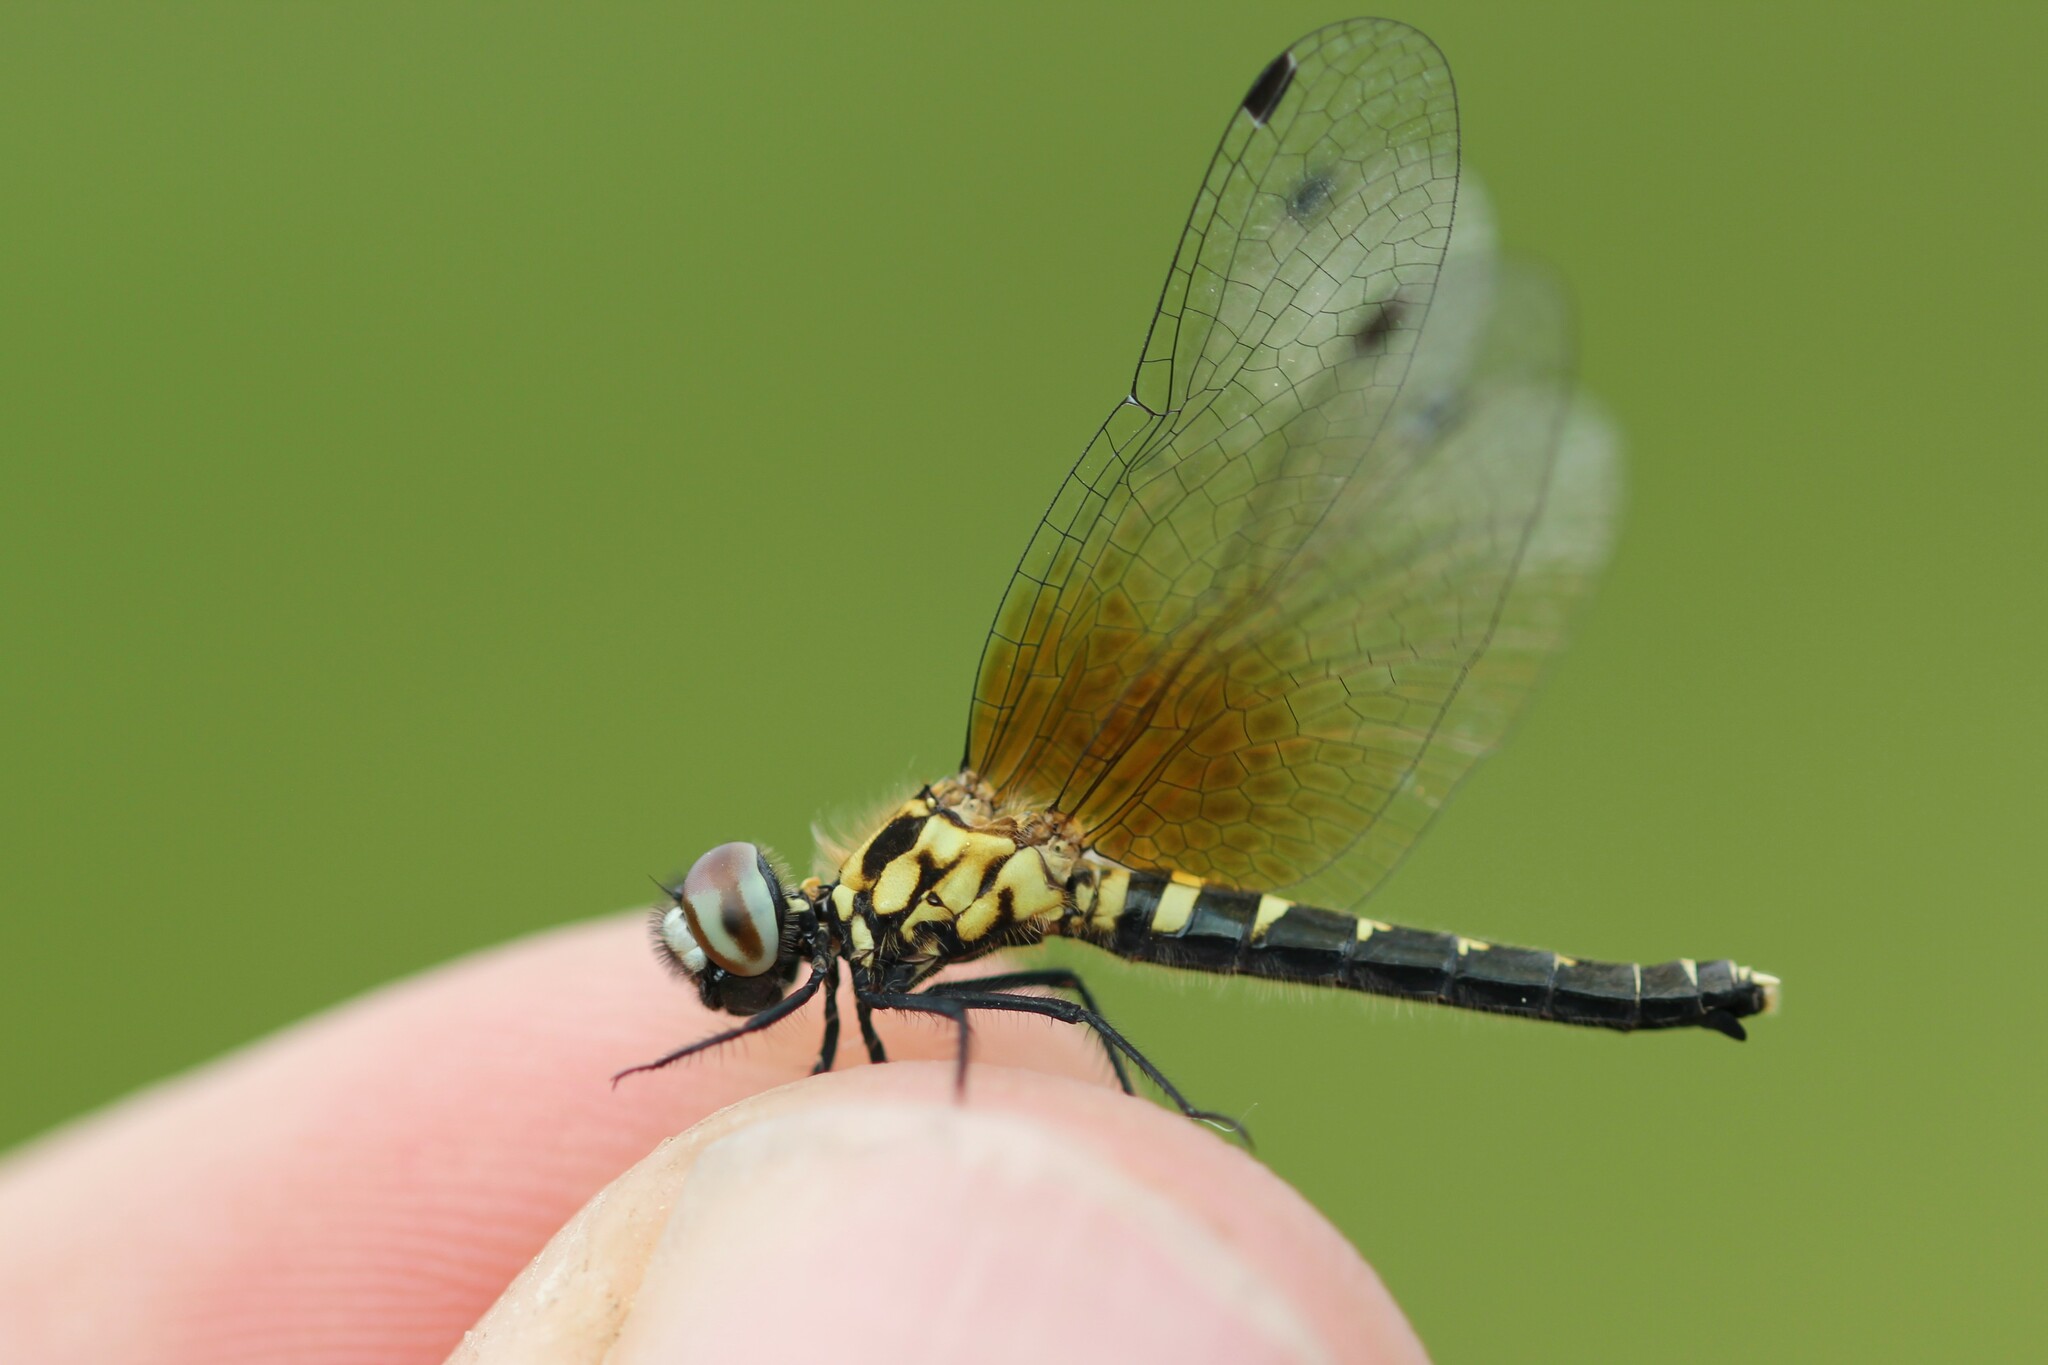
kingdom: Animalia
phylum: Arthropoda
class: Insecta
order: Odonata
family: Libellulidae
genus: Nannothemis
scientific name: Nannothemis bella
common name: Elfin skimmer
